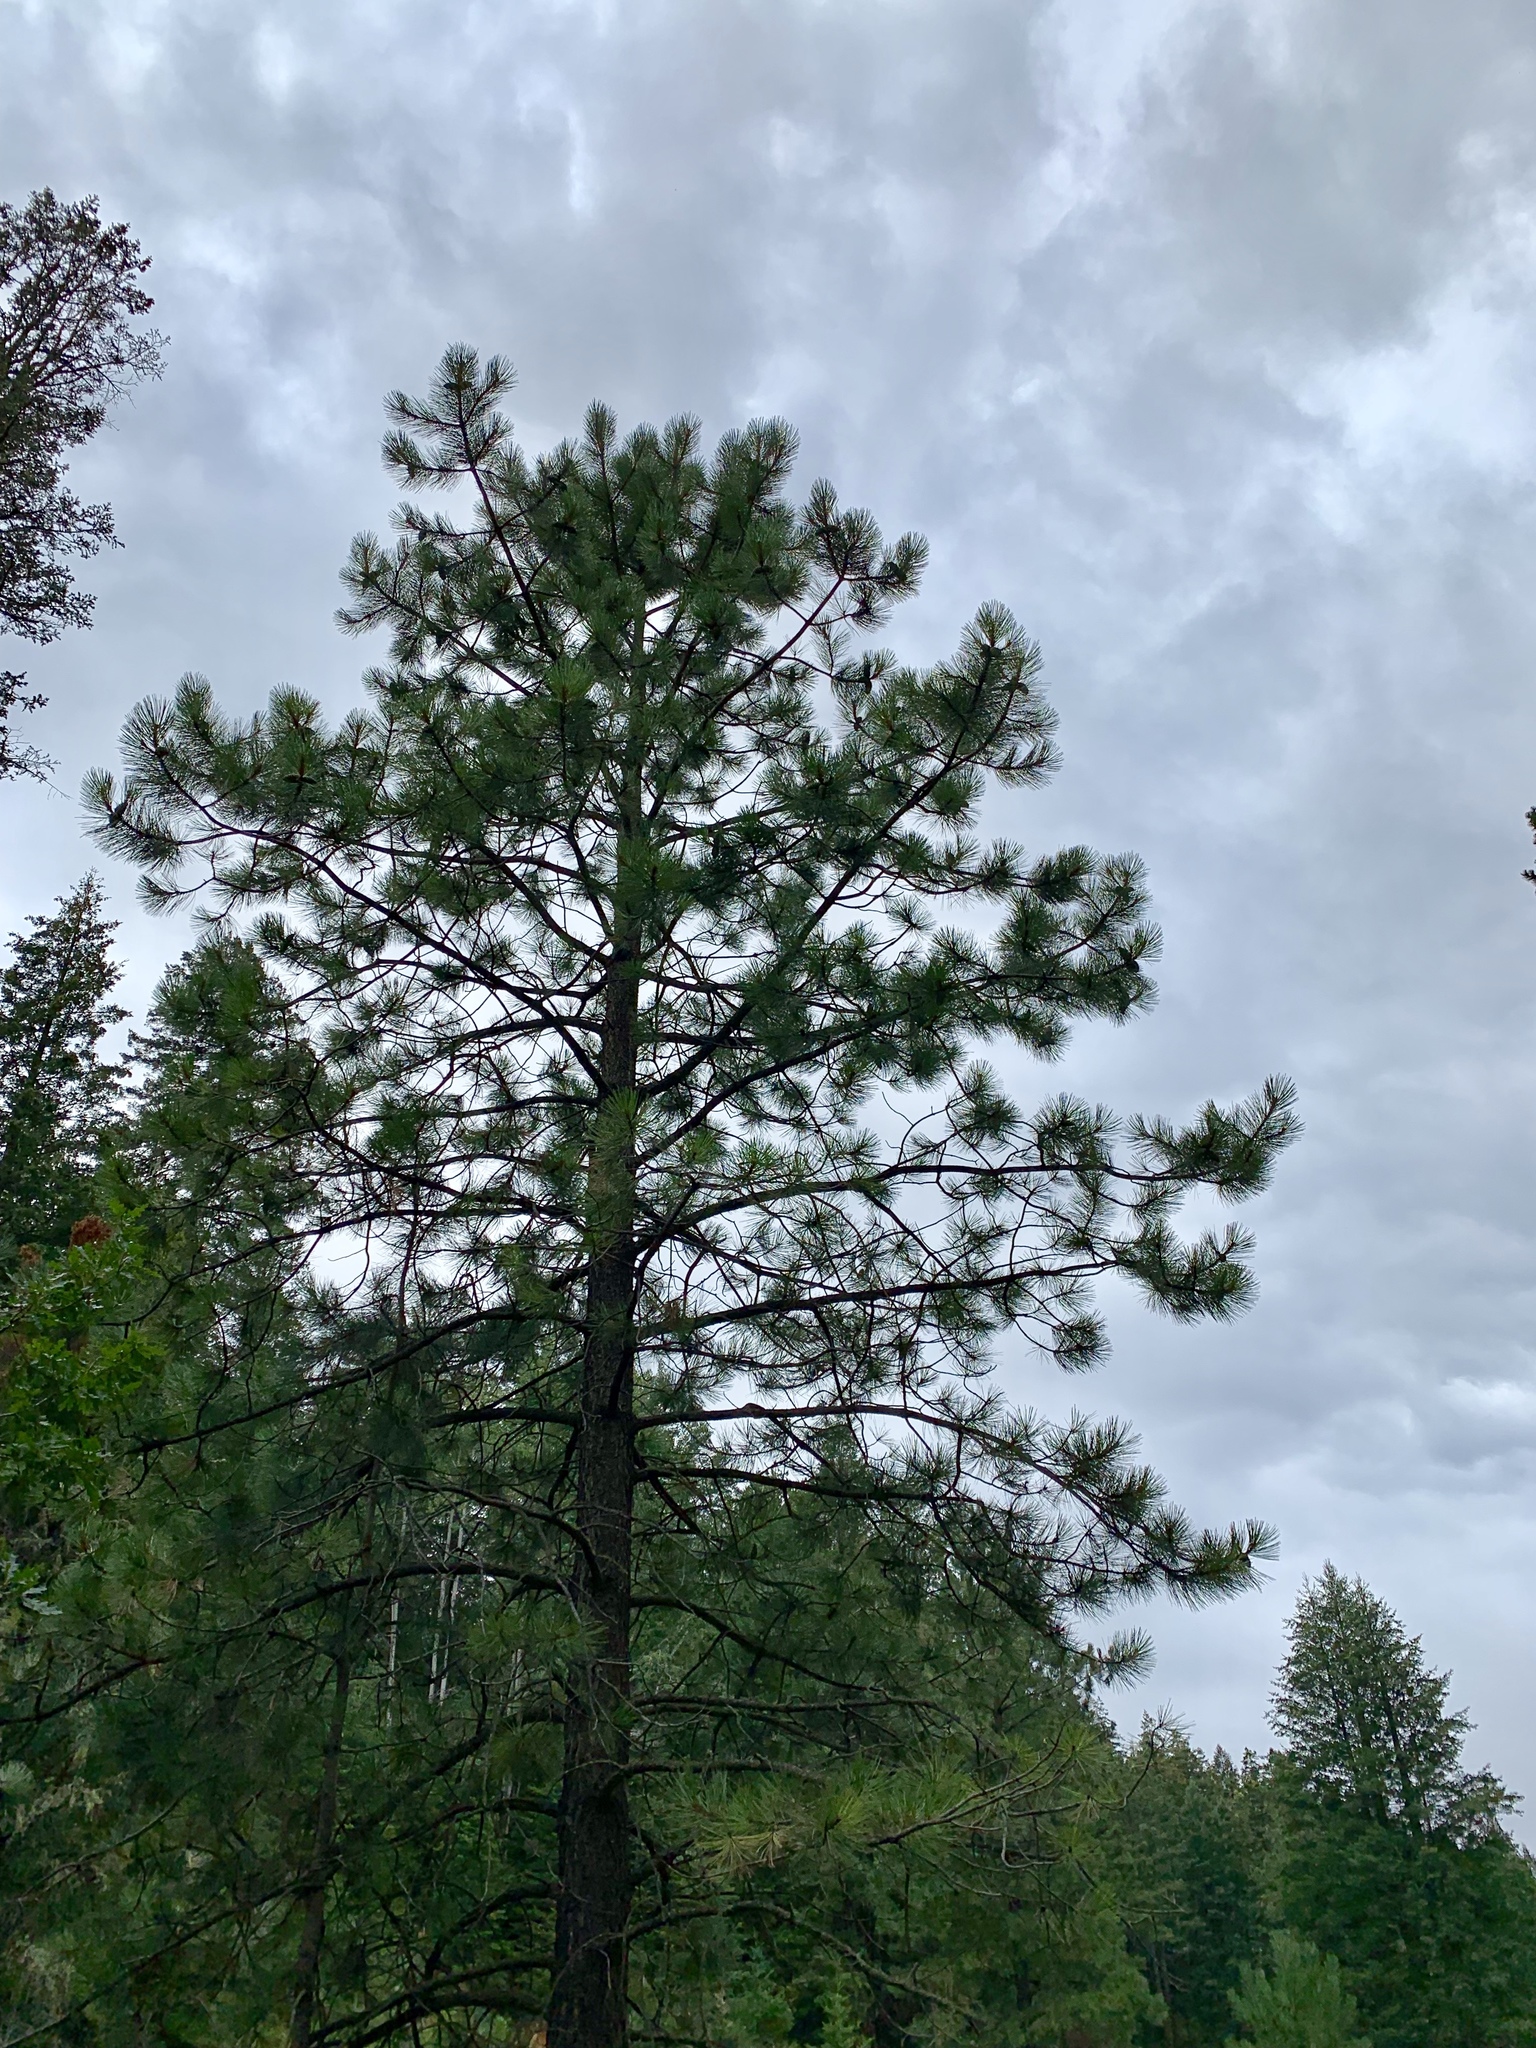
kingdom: Plantae
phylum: Tracheophyta
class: Pinopsida
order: Pinales
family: Pinaceae
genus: Pinus
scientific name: Pinus ponderosa
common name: Western yellow-pine
